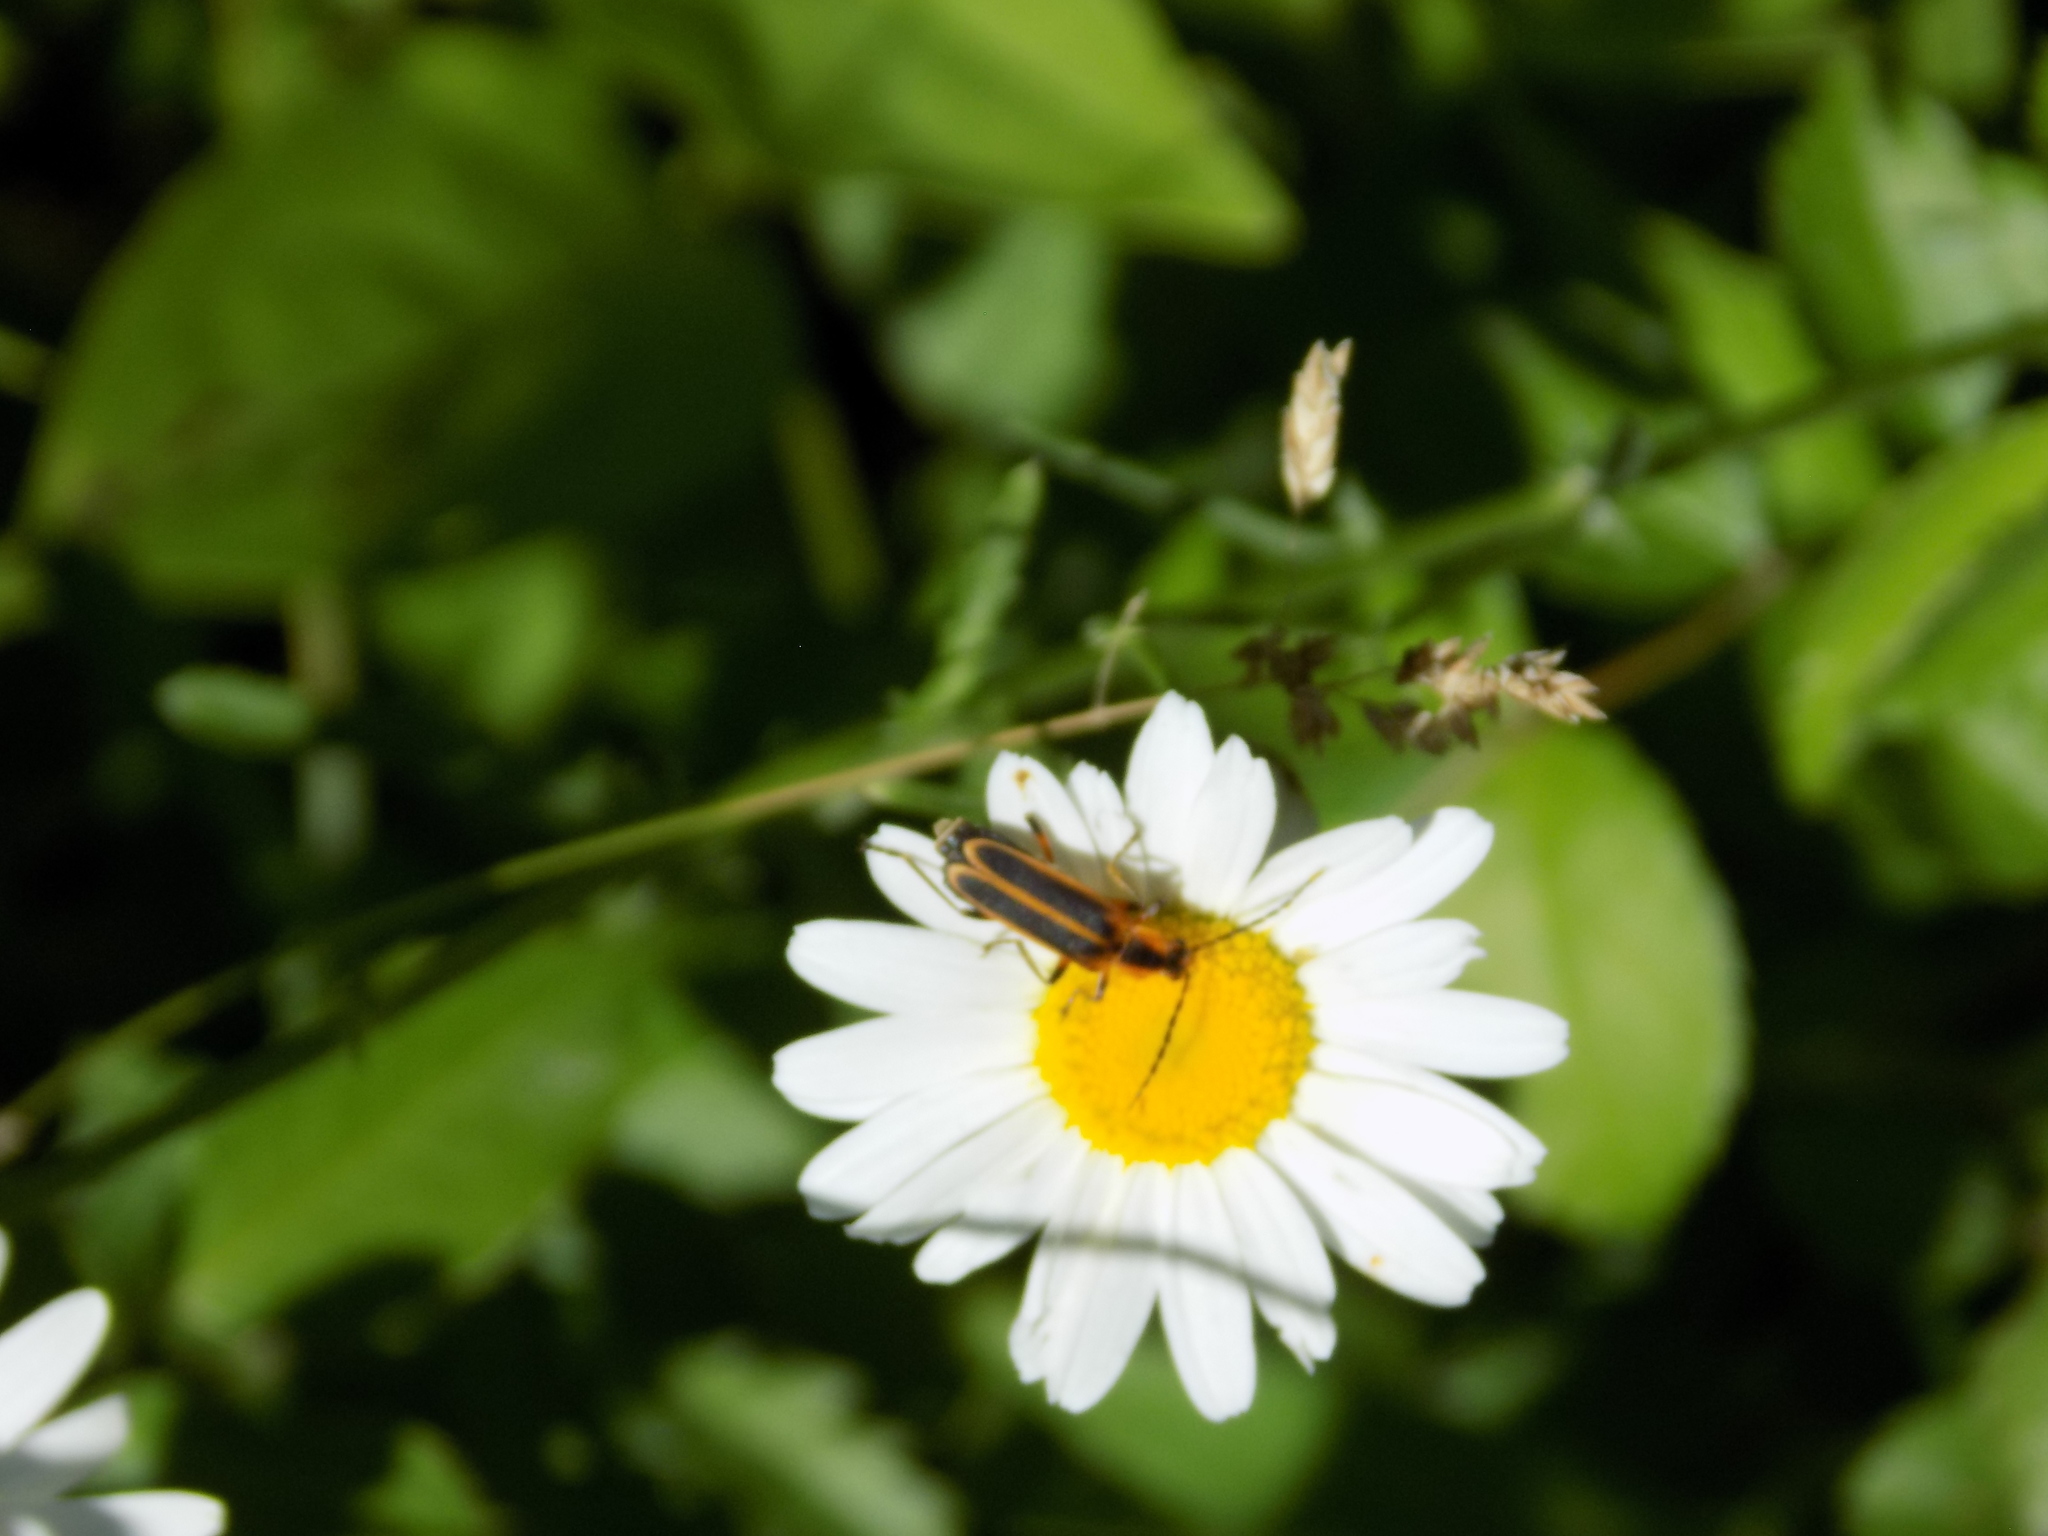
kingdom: Animalia
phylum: Arthropoda
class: Insecta
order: Coleoptera
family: Cantharidae
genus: Chauliognathus
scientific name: Chauliognathus marginatus
